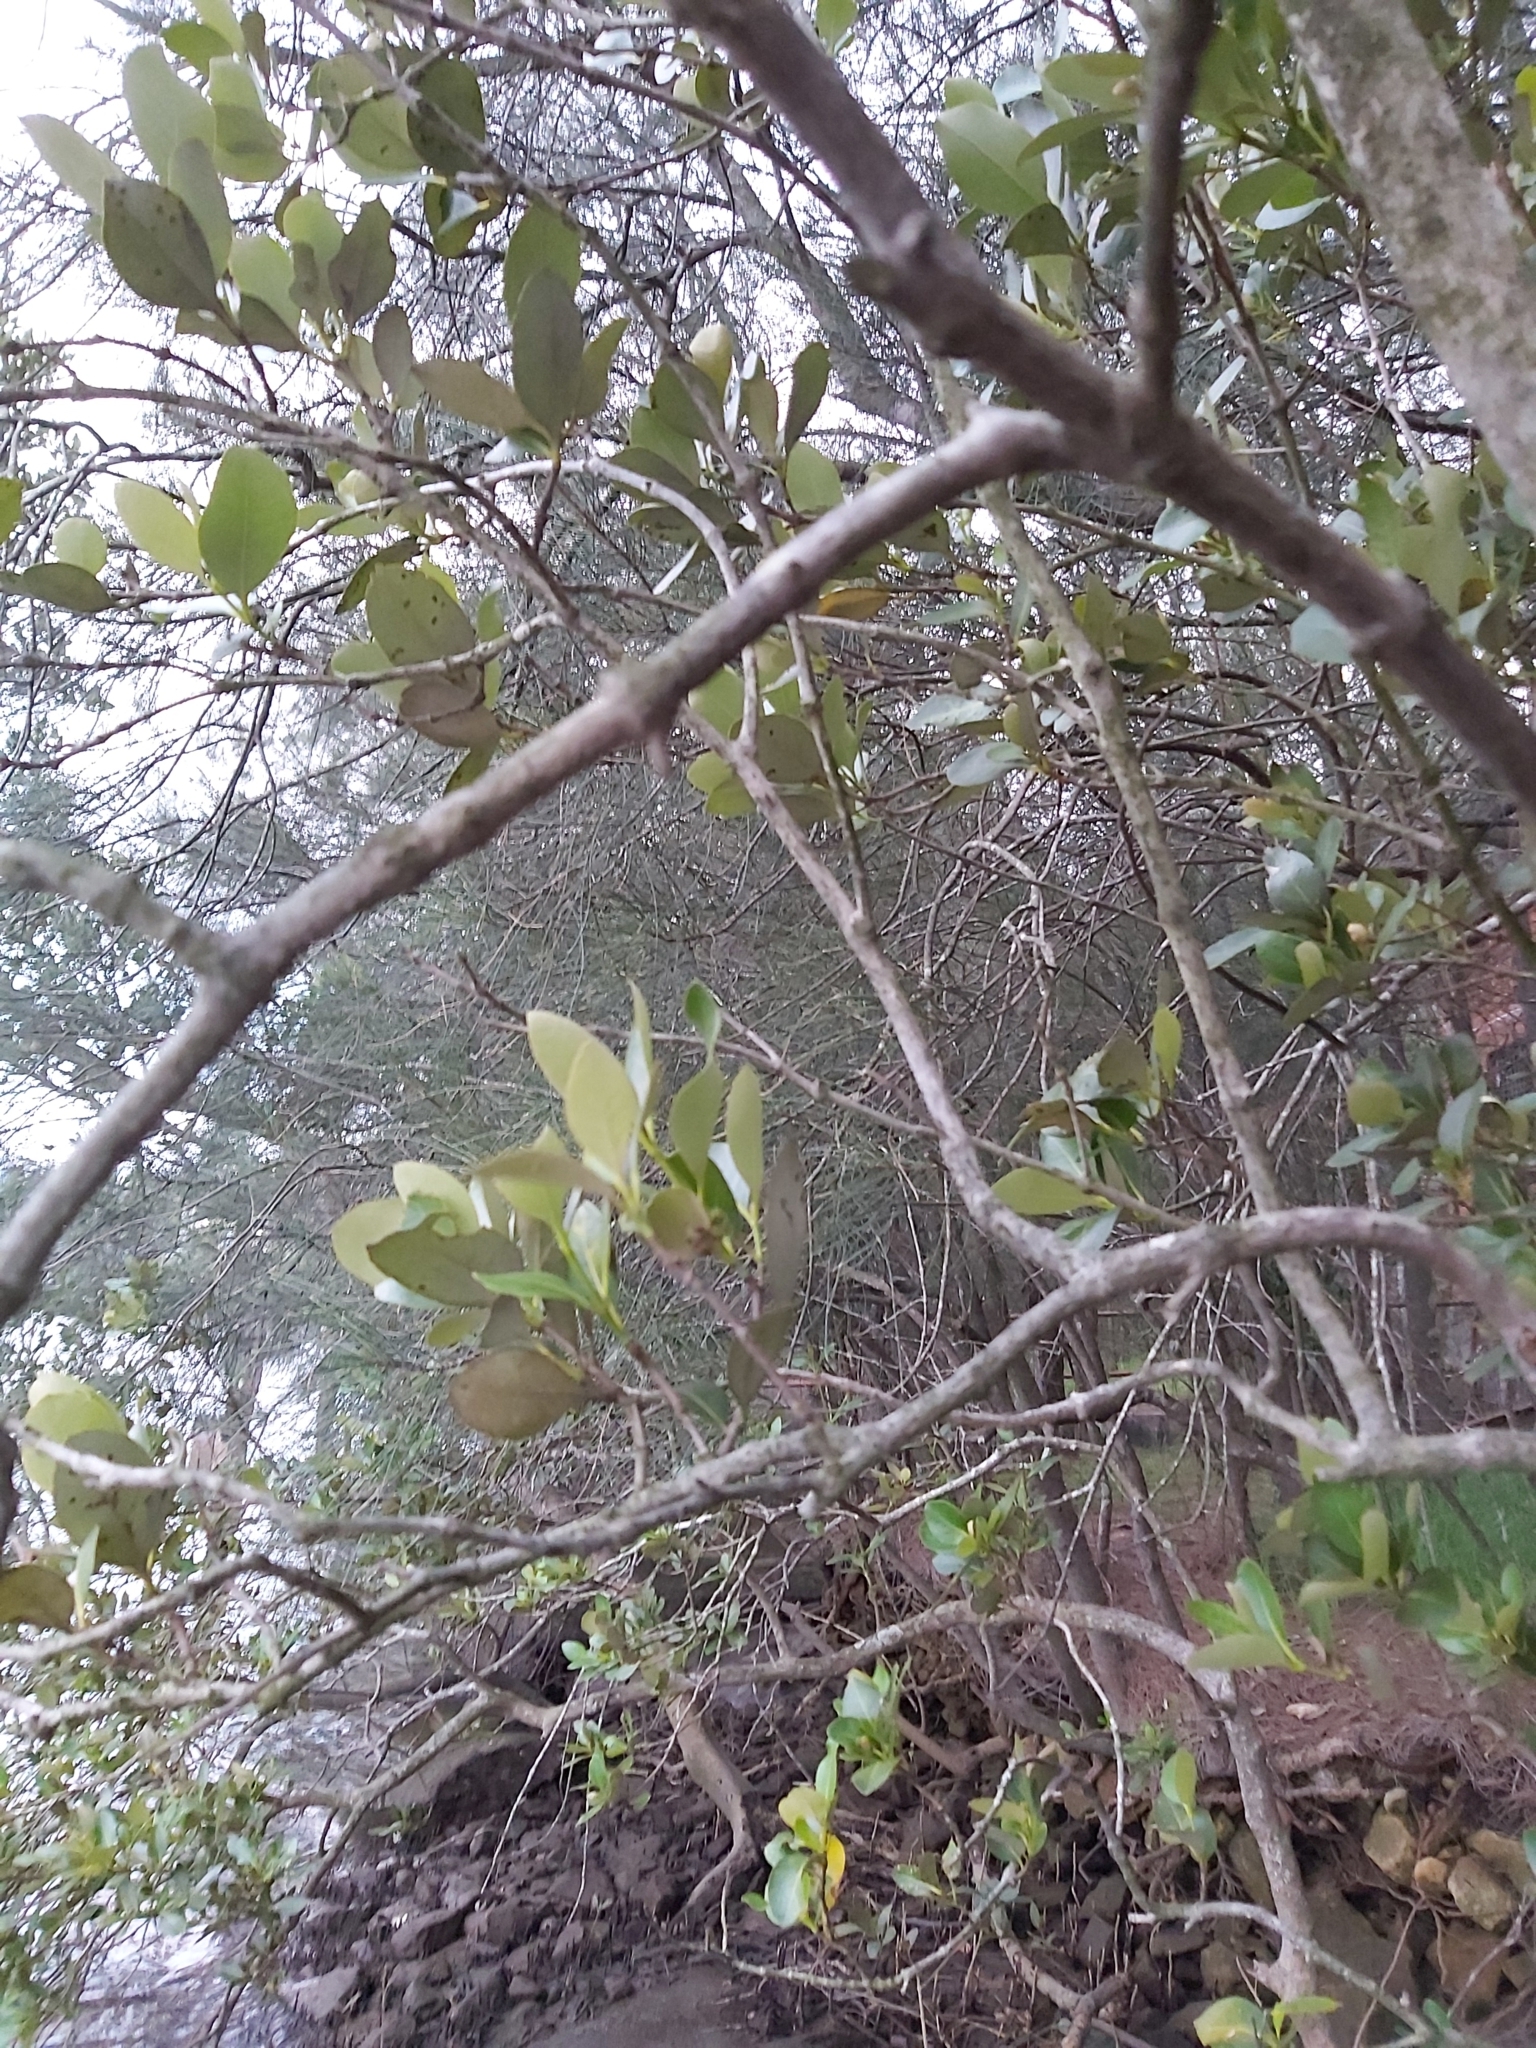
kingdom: Plantae
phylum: Tracheophyta
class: Magnoliopsida
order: Lamiales
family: Acanthaceae
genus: Avicennia
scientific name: Avicennia marina
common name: Gray mangrove
